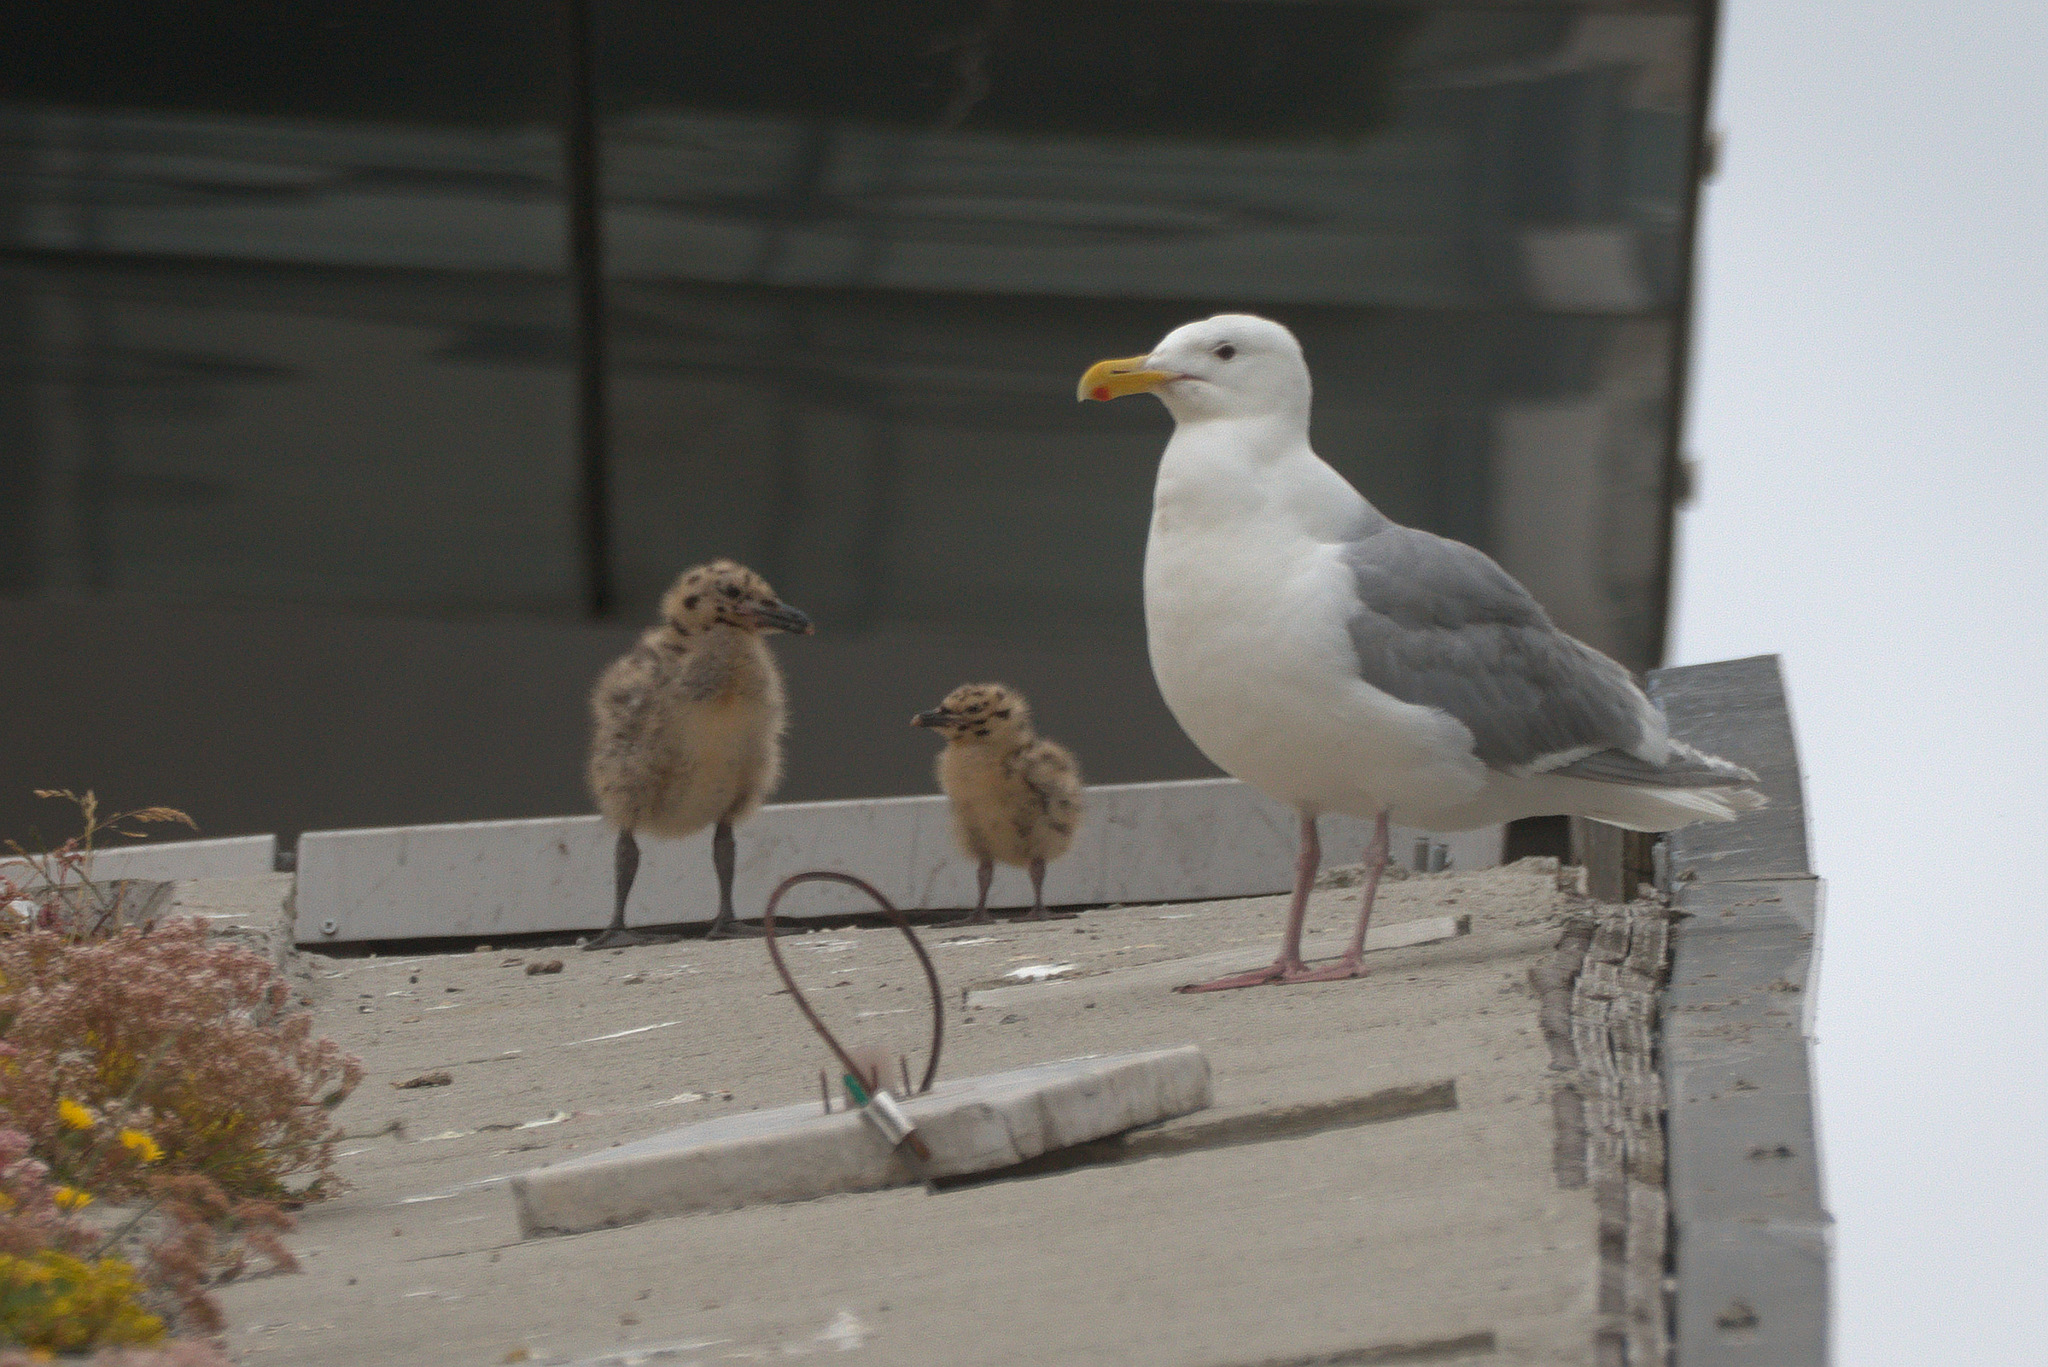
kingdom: Animalia
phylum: Chordata
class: Aves
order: Charadriiformes
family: Laridae
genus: Larus
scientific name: Larus glaucescens
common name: Glaucous-winged gull
